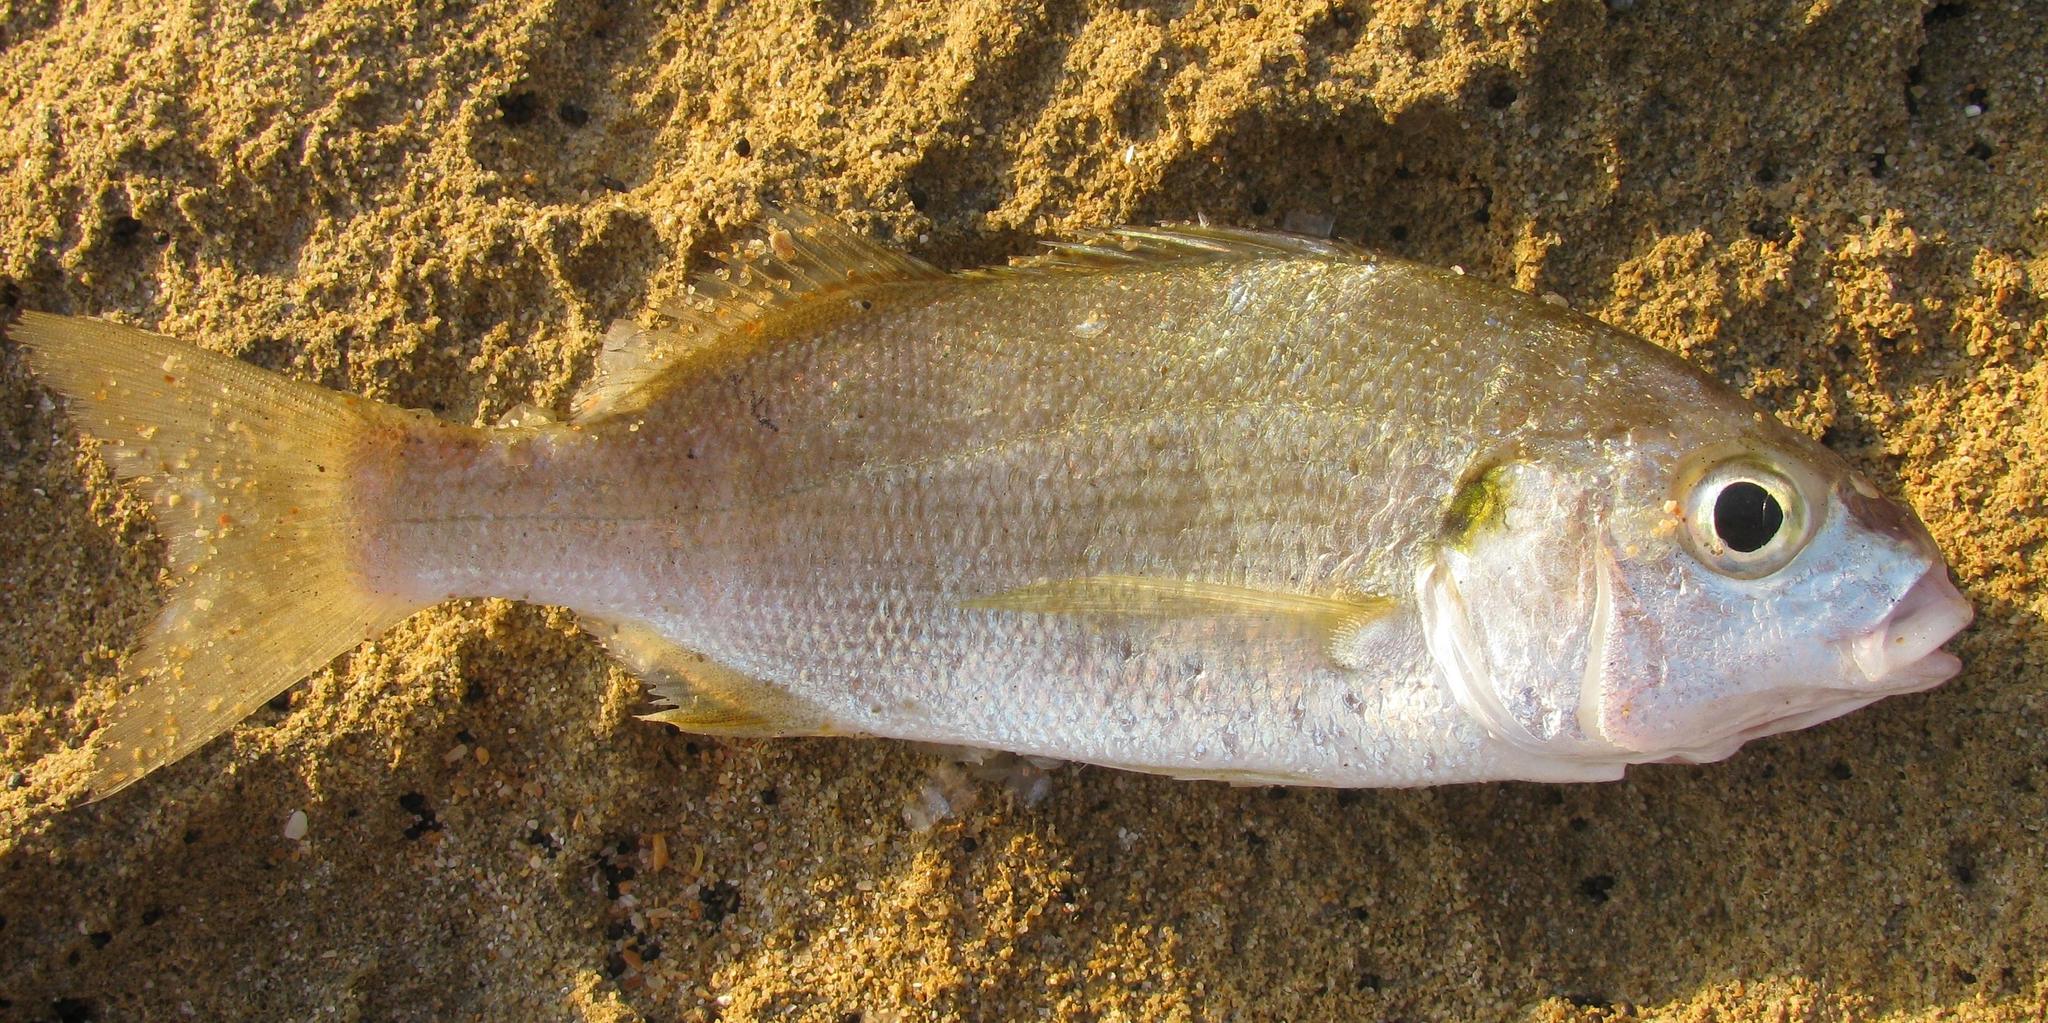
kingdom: Animalia
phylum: Chordata
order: Perciformes
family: Haemulidae
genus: Pomadasys
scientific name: Pomadasys olivaceus
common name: Olive grunt
